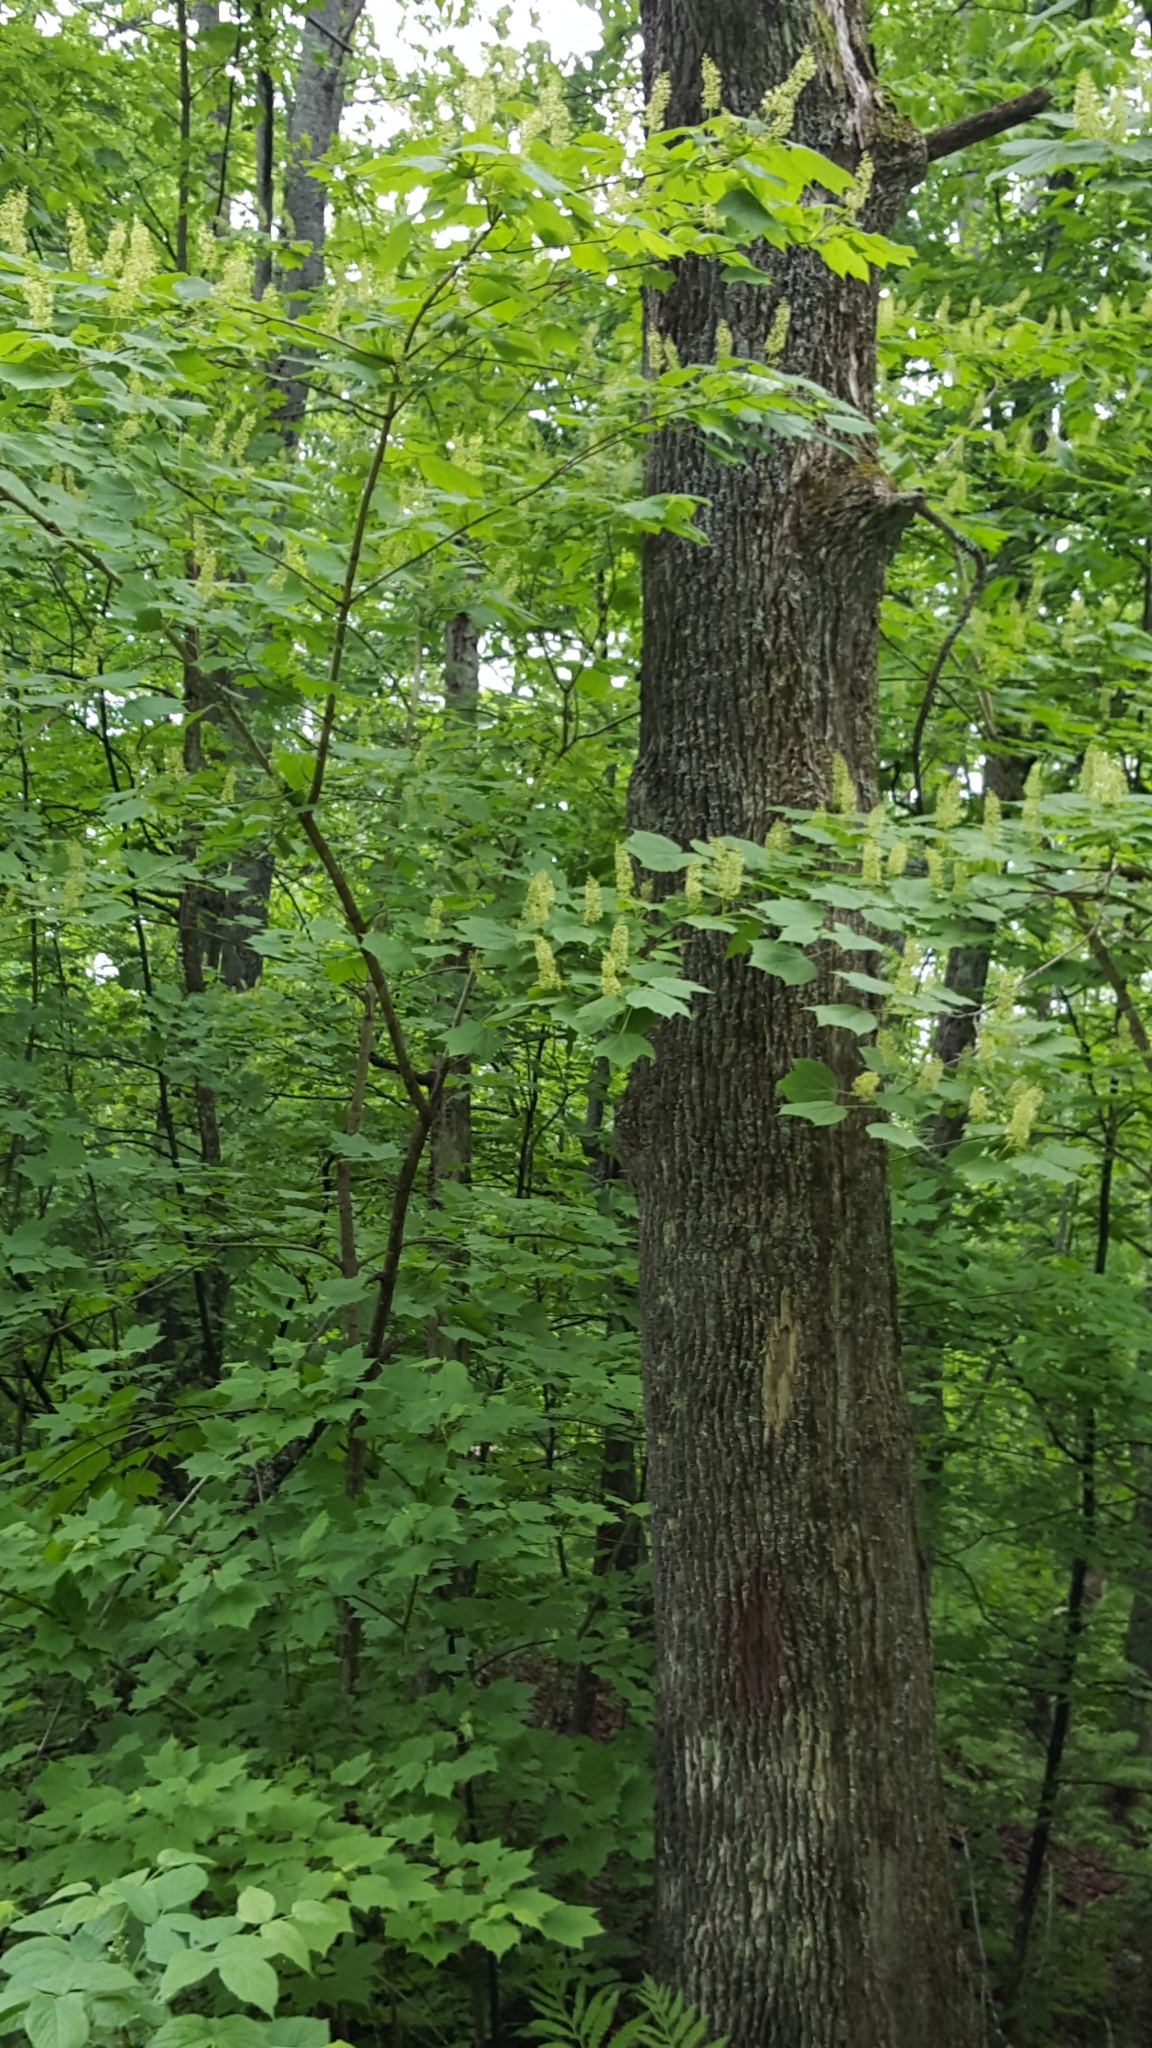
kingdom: Plantae
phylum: Tracheophyta
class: Magnoliopsida
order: Sapindales
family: Sapindaceae
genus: Acer
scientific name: Acer spicatum
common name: Mountain maple
